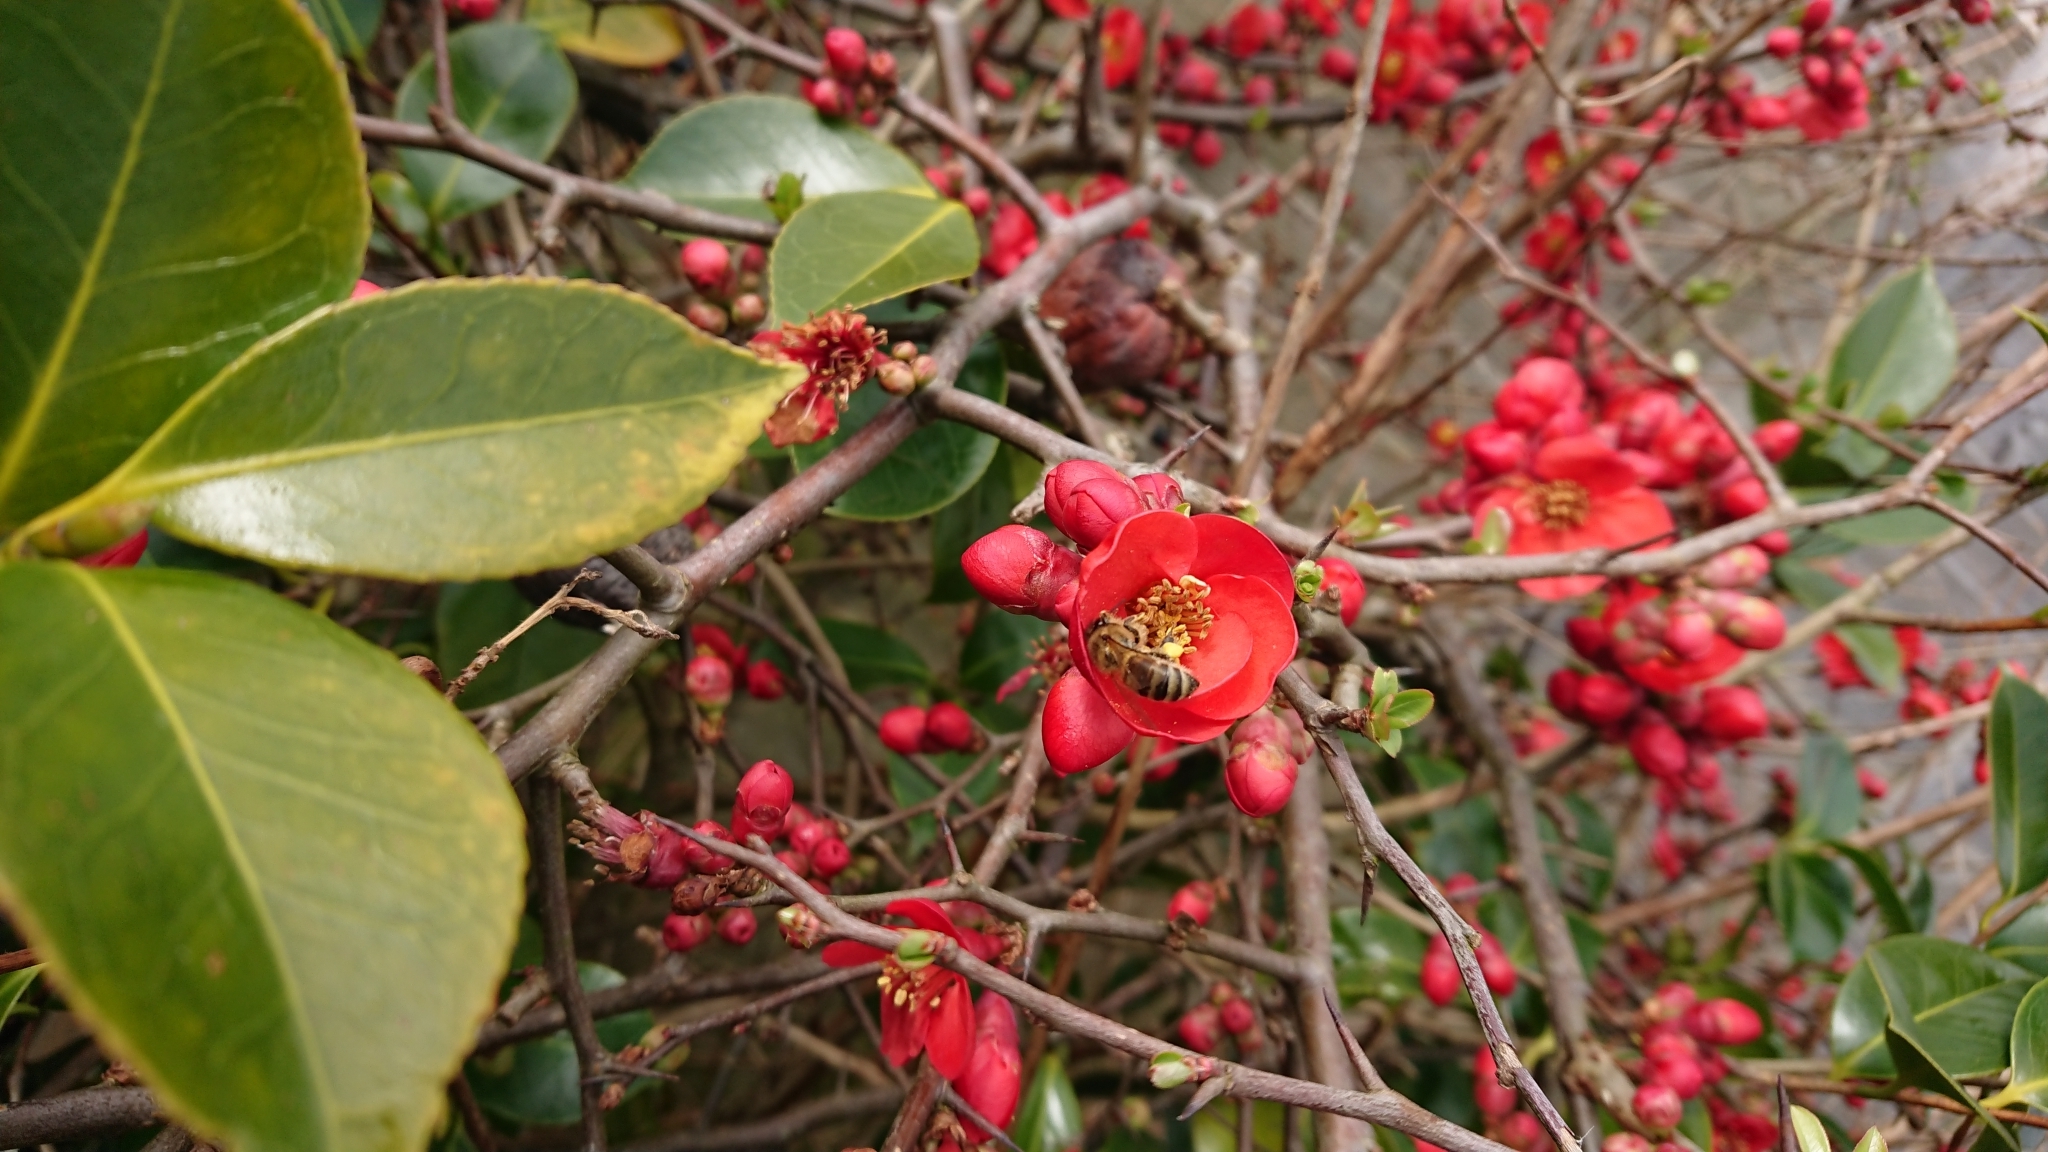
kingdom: Animalia
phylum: Arthropoda
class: Insecta
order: Hymenoptera
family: Apidae
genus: Apis
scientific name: Apis mellifera
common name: Honey bee
